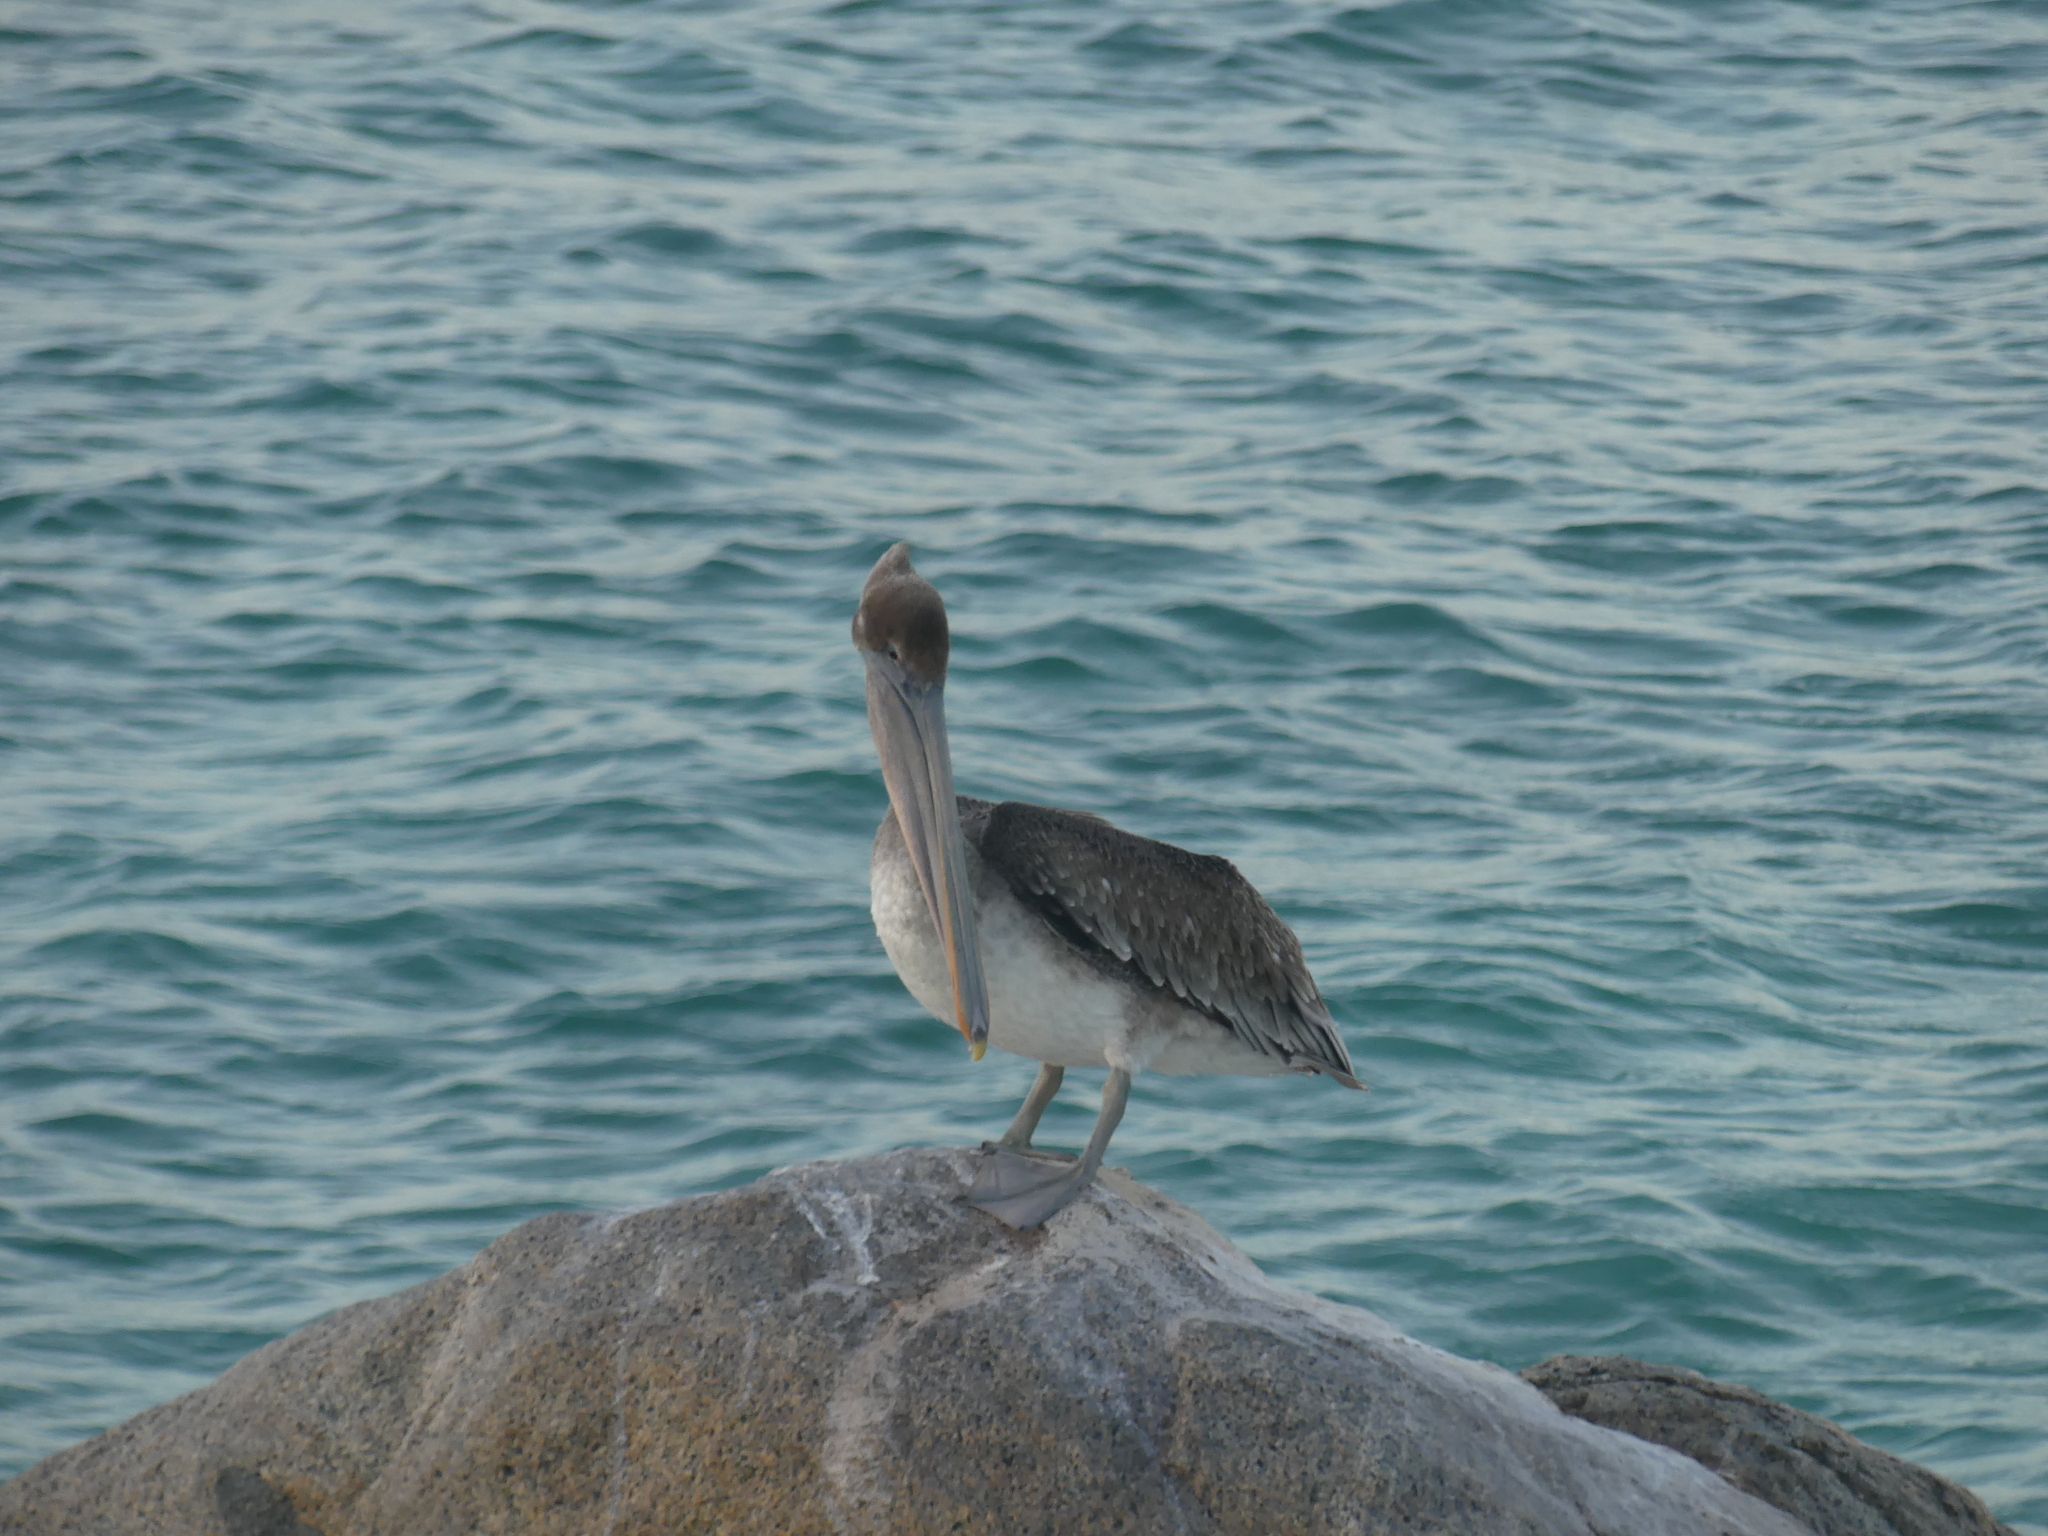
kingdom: Animalia
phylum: Chordata
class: Aves
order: Pelecaniformes
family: Pelecanidae
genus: Pelecanus
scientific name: Pelecanus occidentalis
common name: Brown pelican
